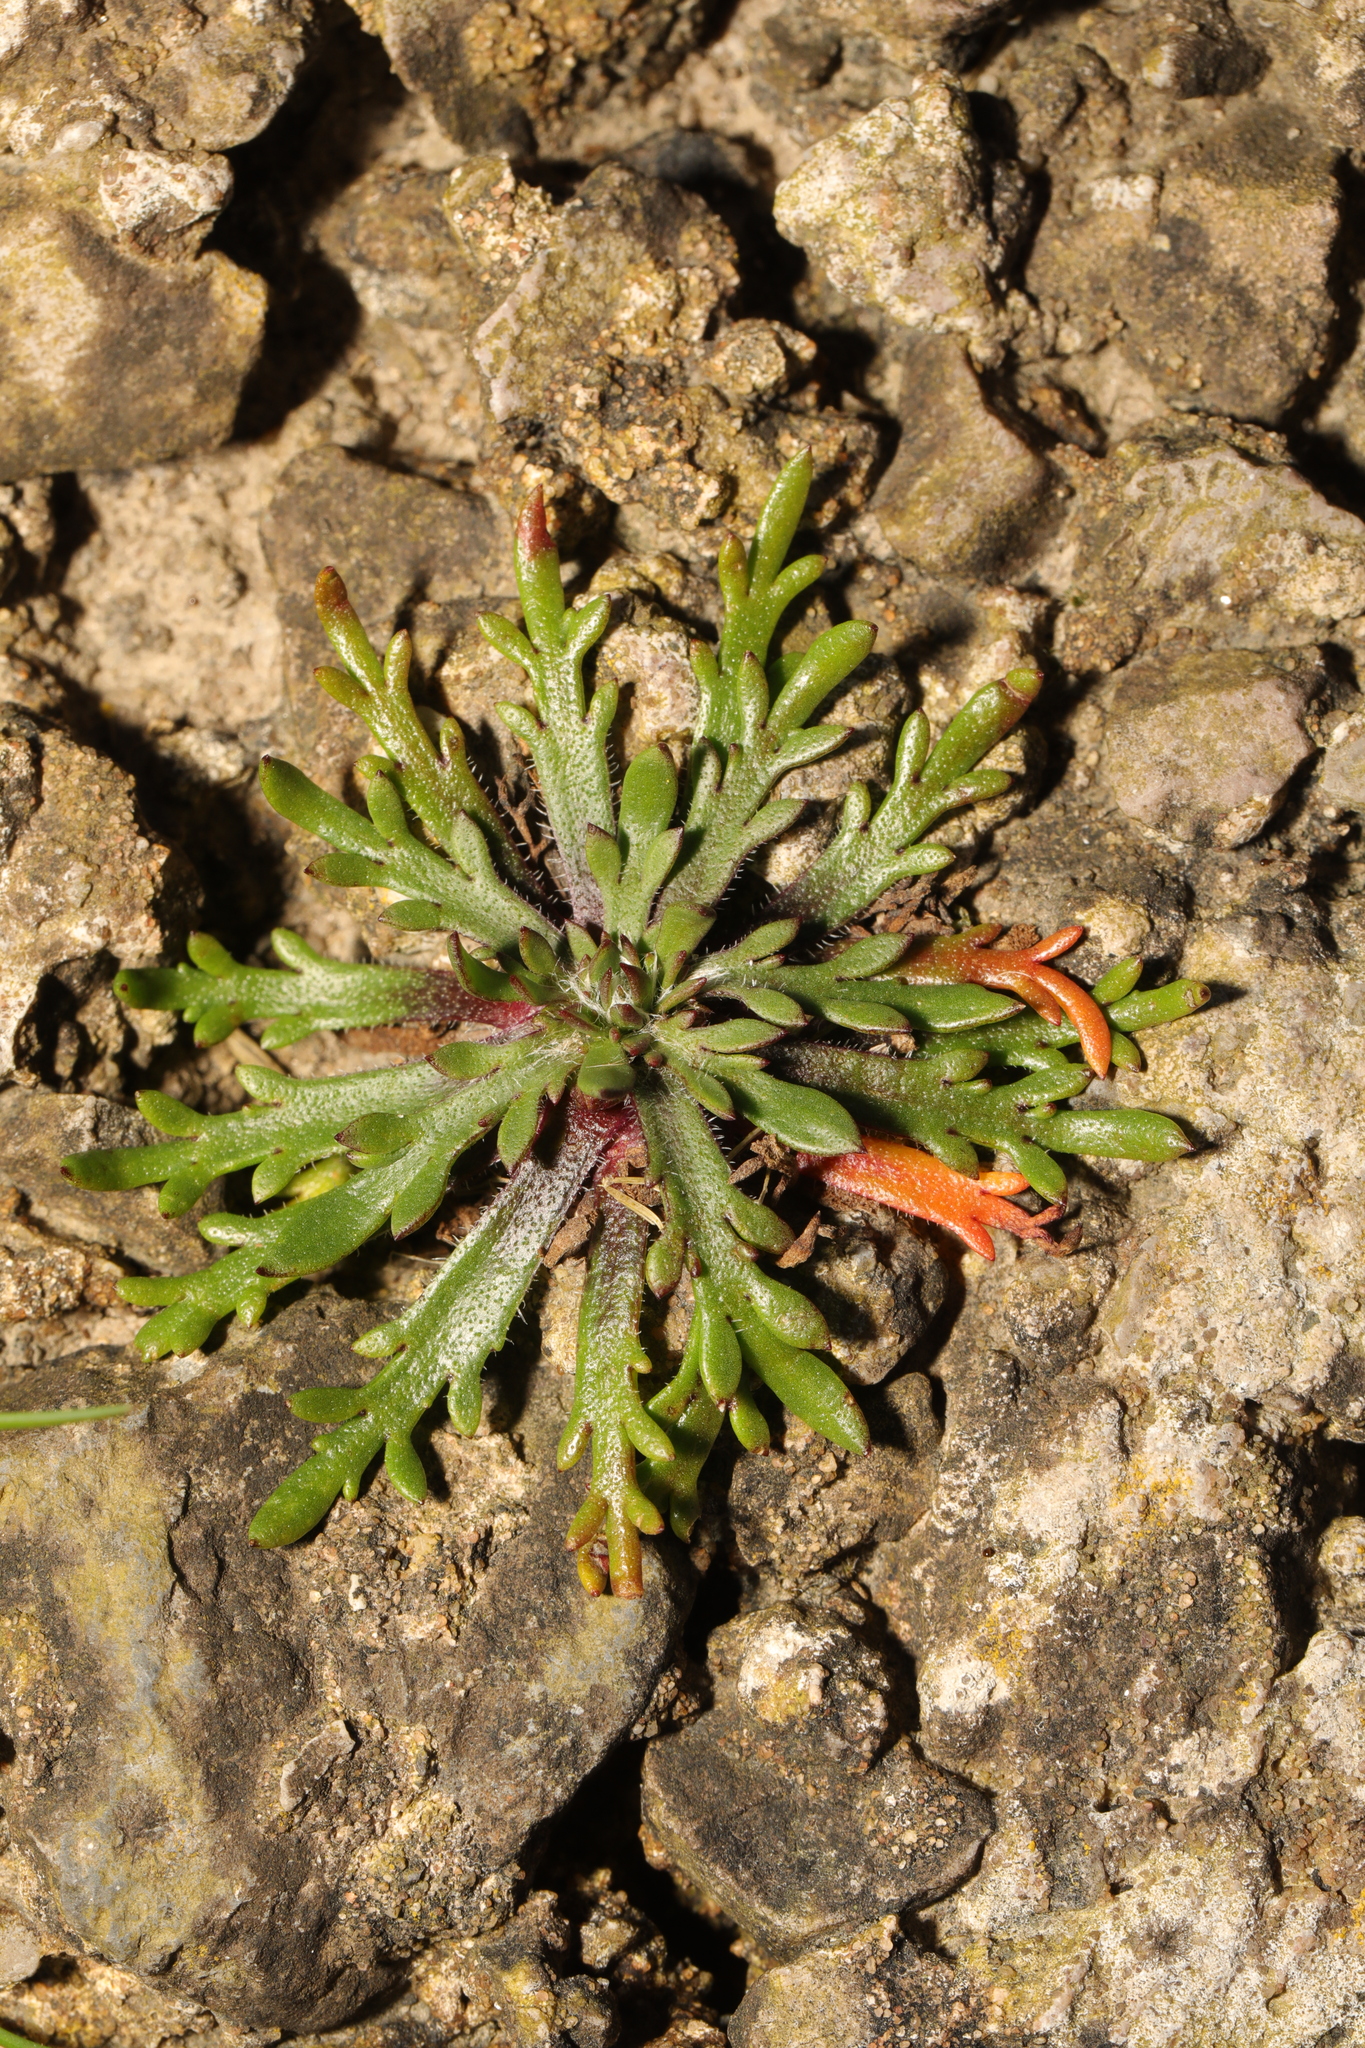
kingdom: Plantae
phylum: Tracheophyta
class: Magnoliopsida
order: Lamiales
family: Plantaginaceae
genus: Plantago
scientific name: Plantago coronopus
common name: Buck's-horn plantain
